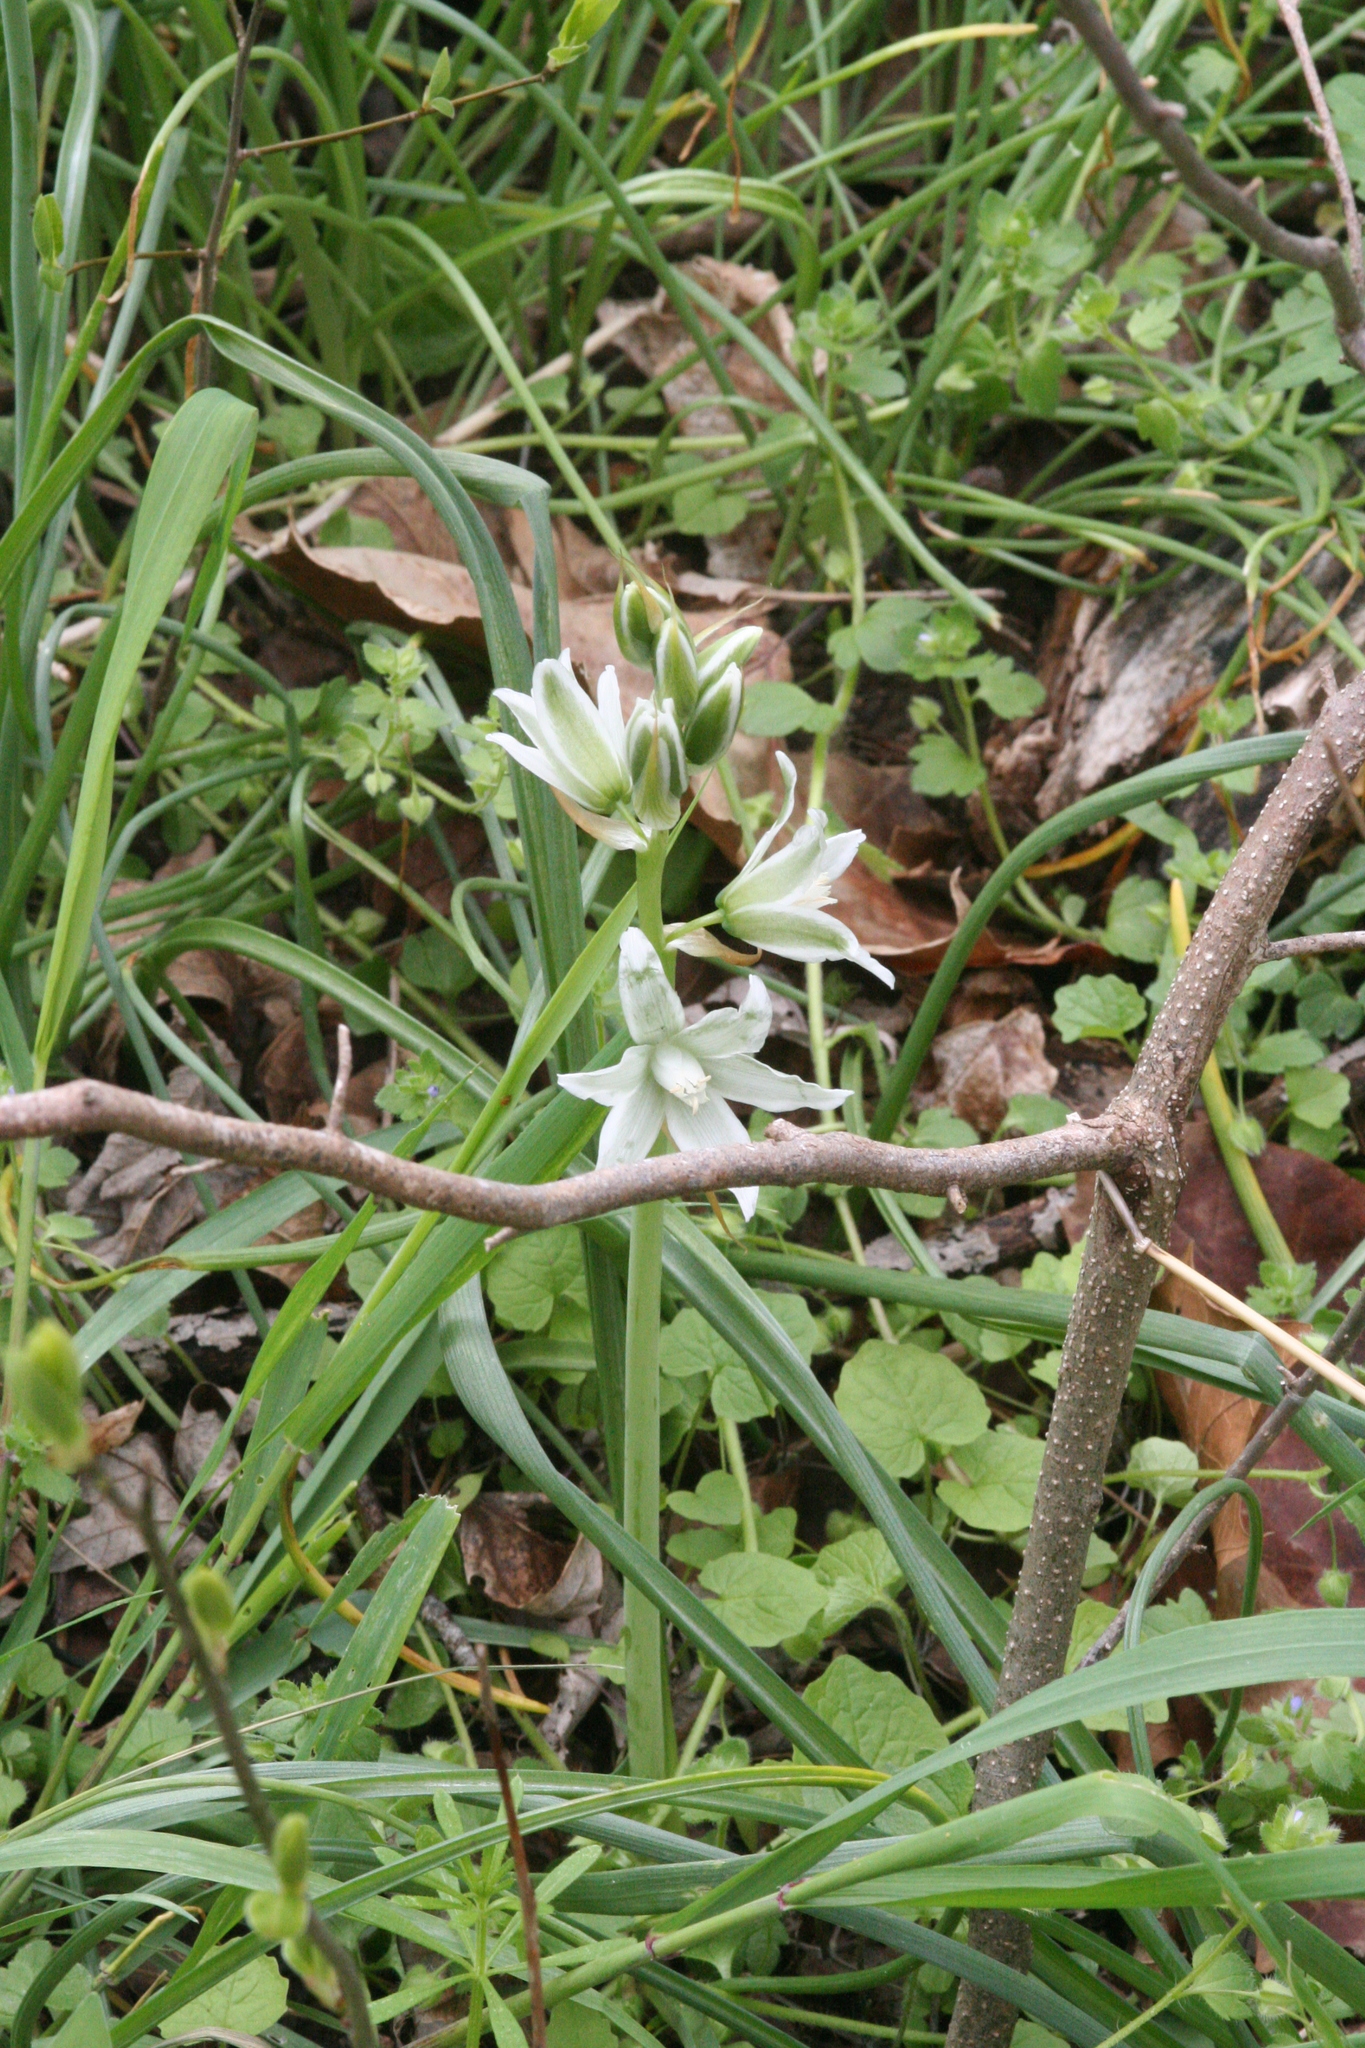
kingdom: Plantae
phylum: Tracheophyta
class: Liliopsida
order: Asparagales
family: Asparagaceae
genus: Ornithogalum
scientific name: Ornithogalum nutans
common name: Drooping star-of-bethlehem
